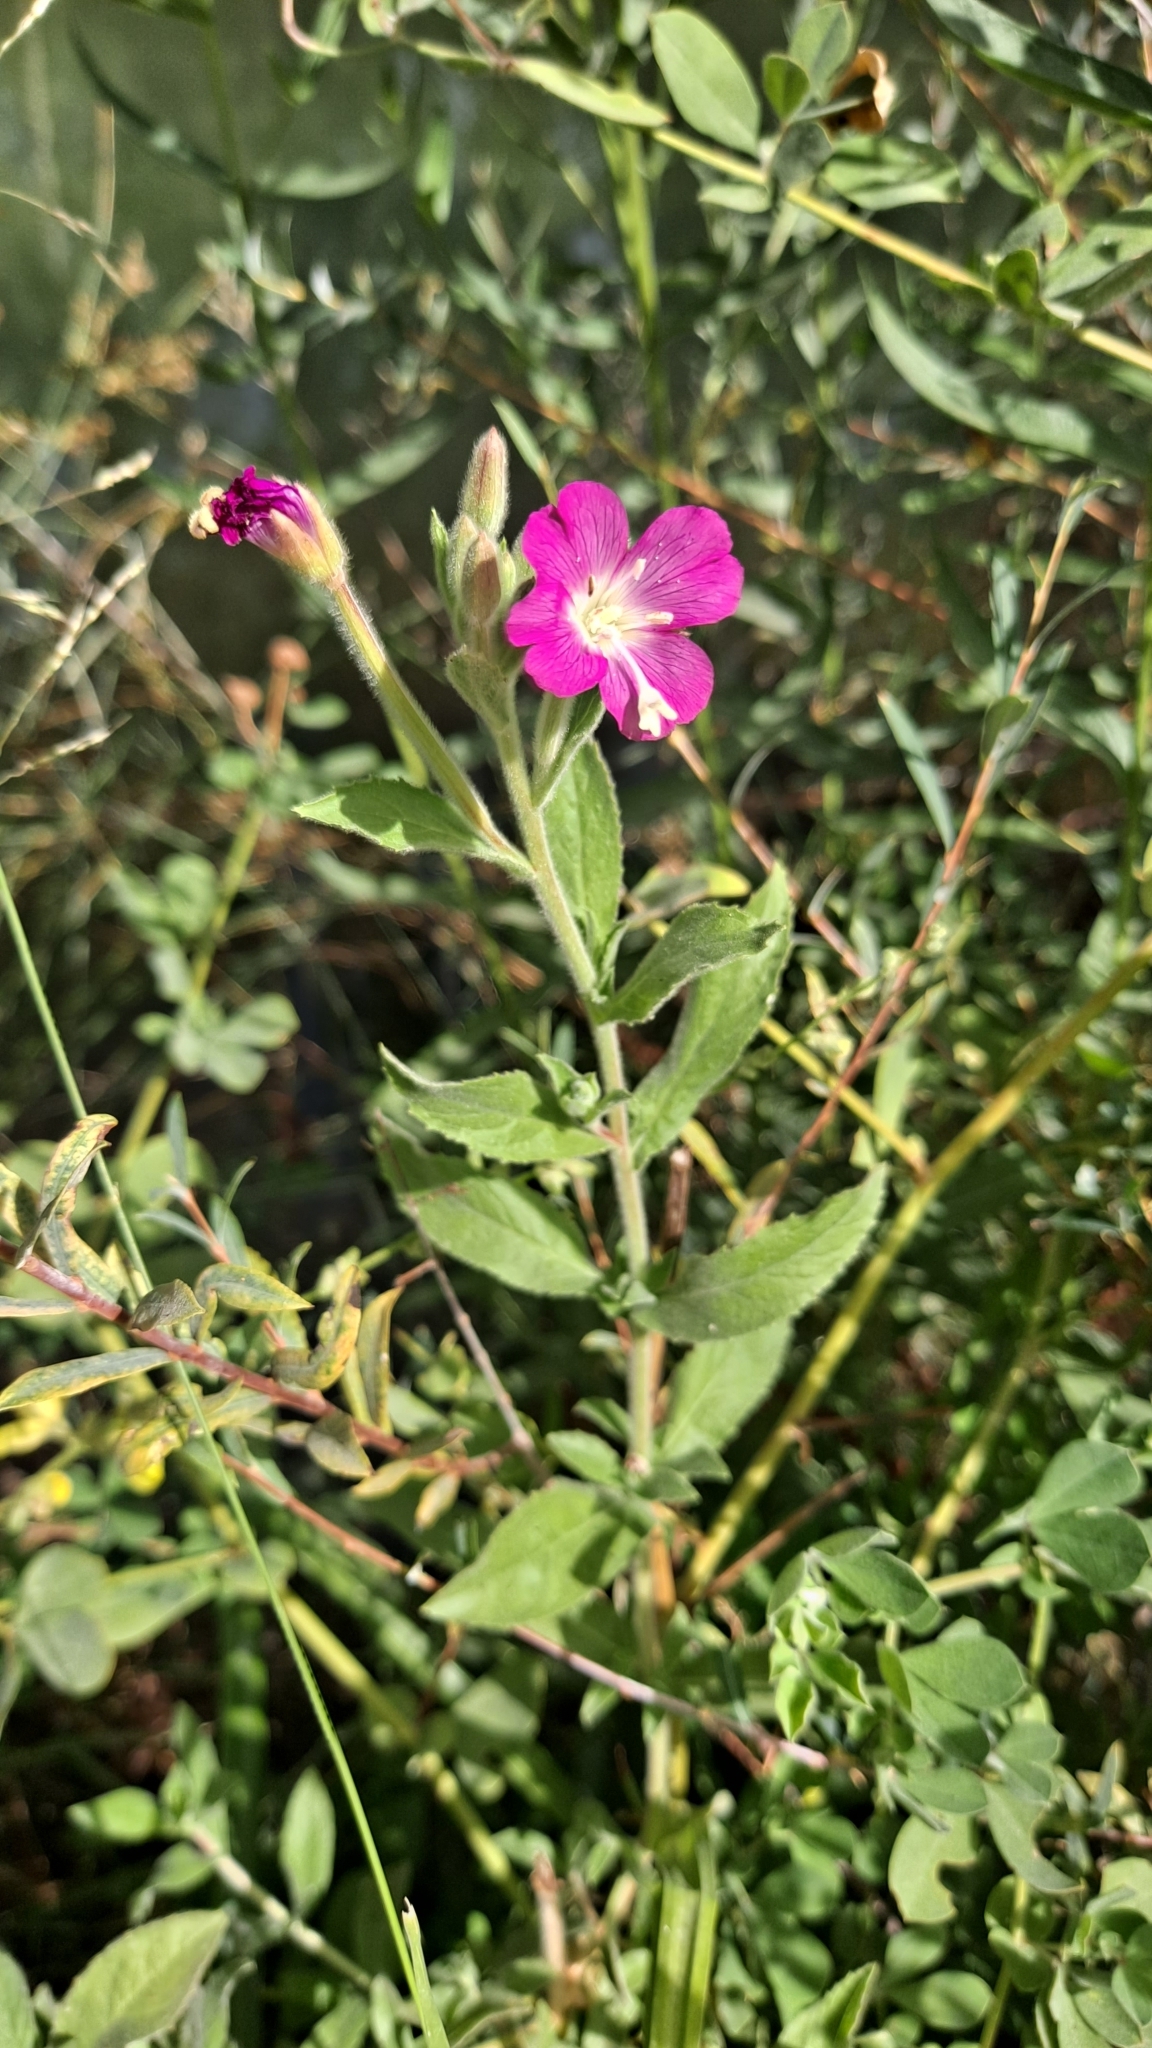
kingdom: Plantae
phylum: Tracheophyta
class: Magnoliopsida
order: Myrtales
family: Onagraceae
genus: Epilobium
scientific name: Epilobium hirsutum
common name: Great willowherb
